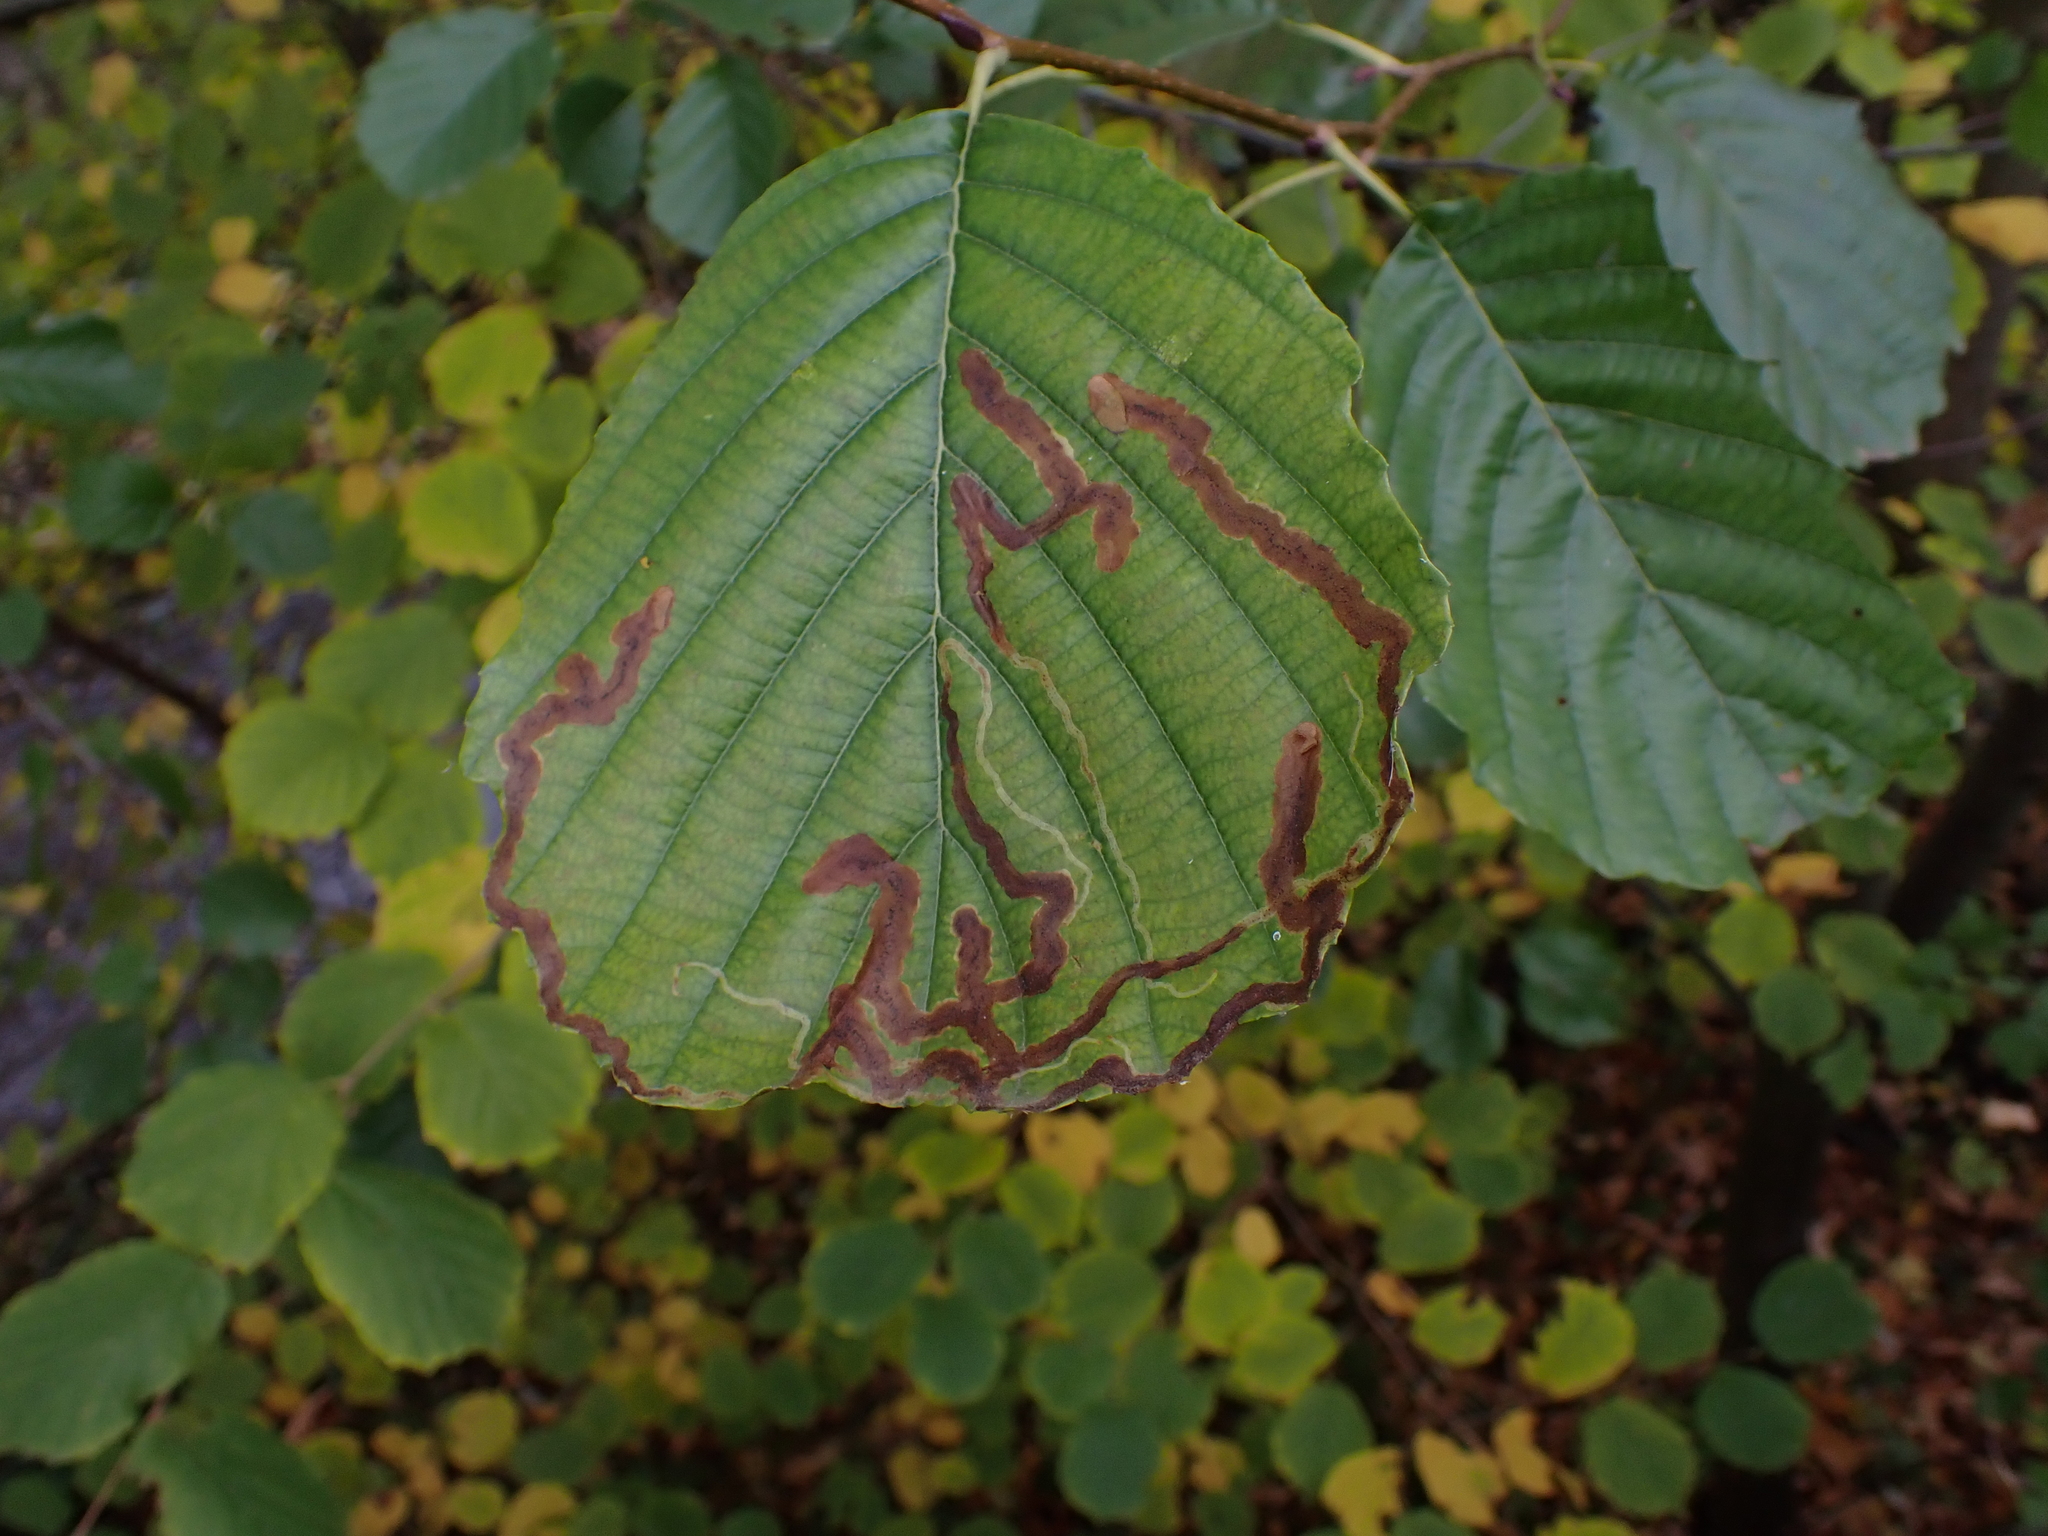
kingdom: Animalia
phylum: Arthropoda
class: Insecta
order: Diptera
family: Agromyzidae
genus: Agromyza
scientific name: Agromyza alnivora
